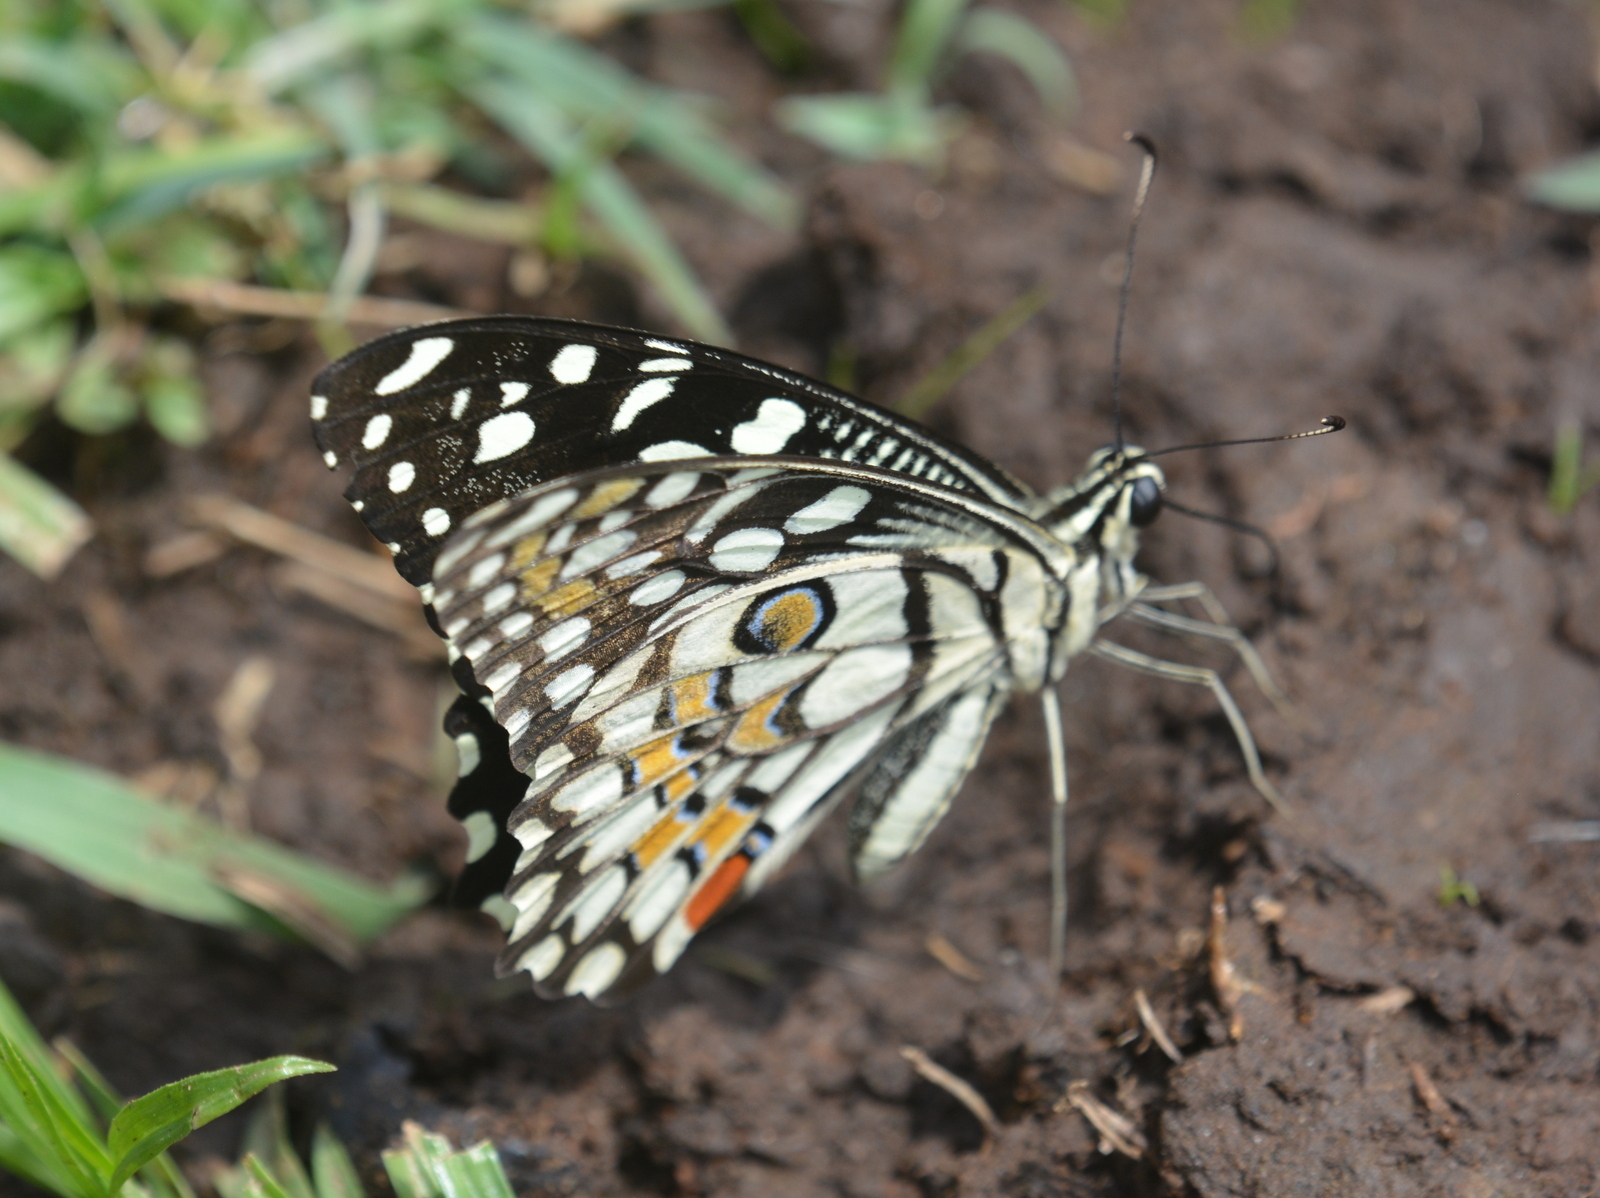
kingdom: Animalia
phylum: Arthropoda
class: Insecta
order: Lepidoptera
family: Papilionidae
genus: Papilio
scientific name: Papilio demoleus
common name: Lime butterfly
